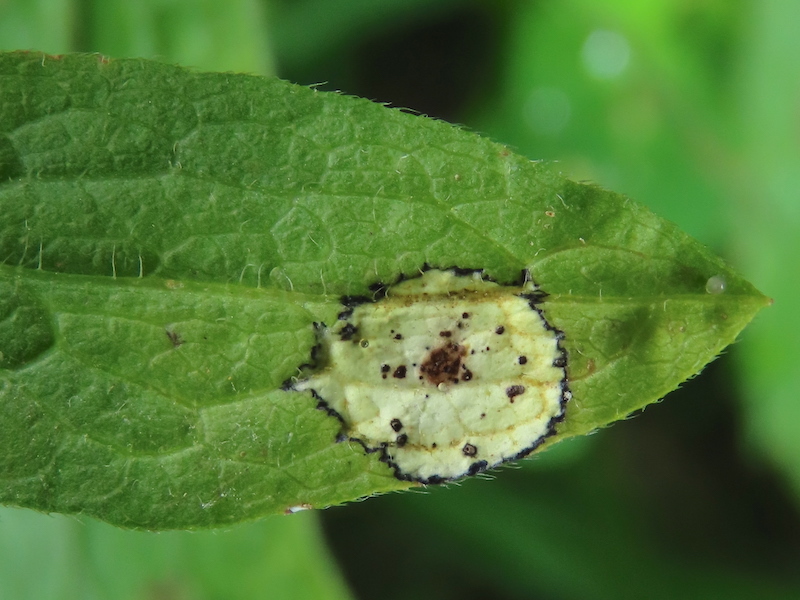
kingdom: Animalia
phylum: Arthropoda
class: Insecta
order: Diptera
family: Cecidomyiidae
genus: Asteromyia
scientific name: Asteromyia carbonifera
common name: Carbonifera goldenrod gall midge
